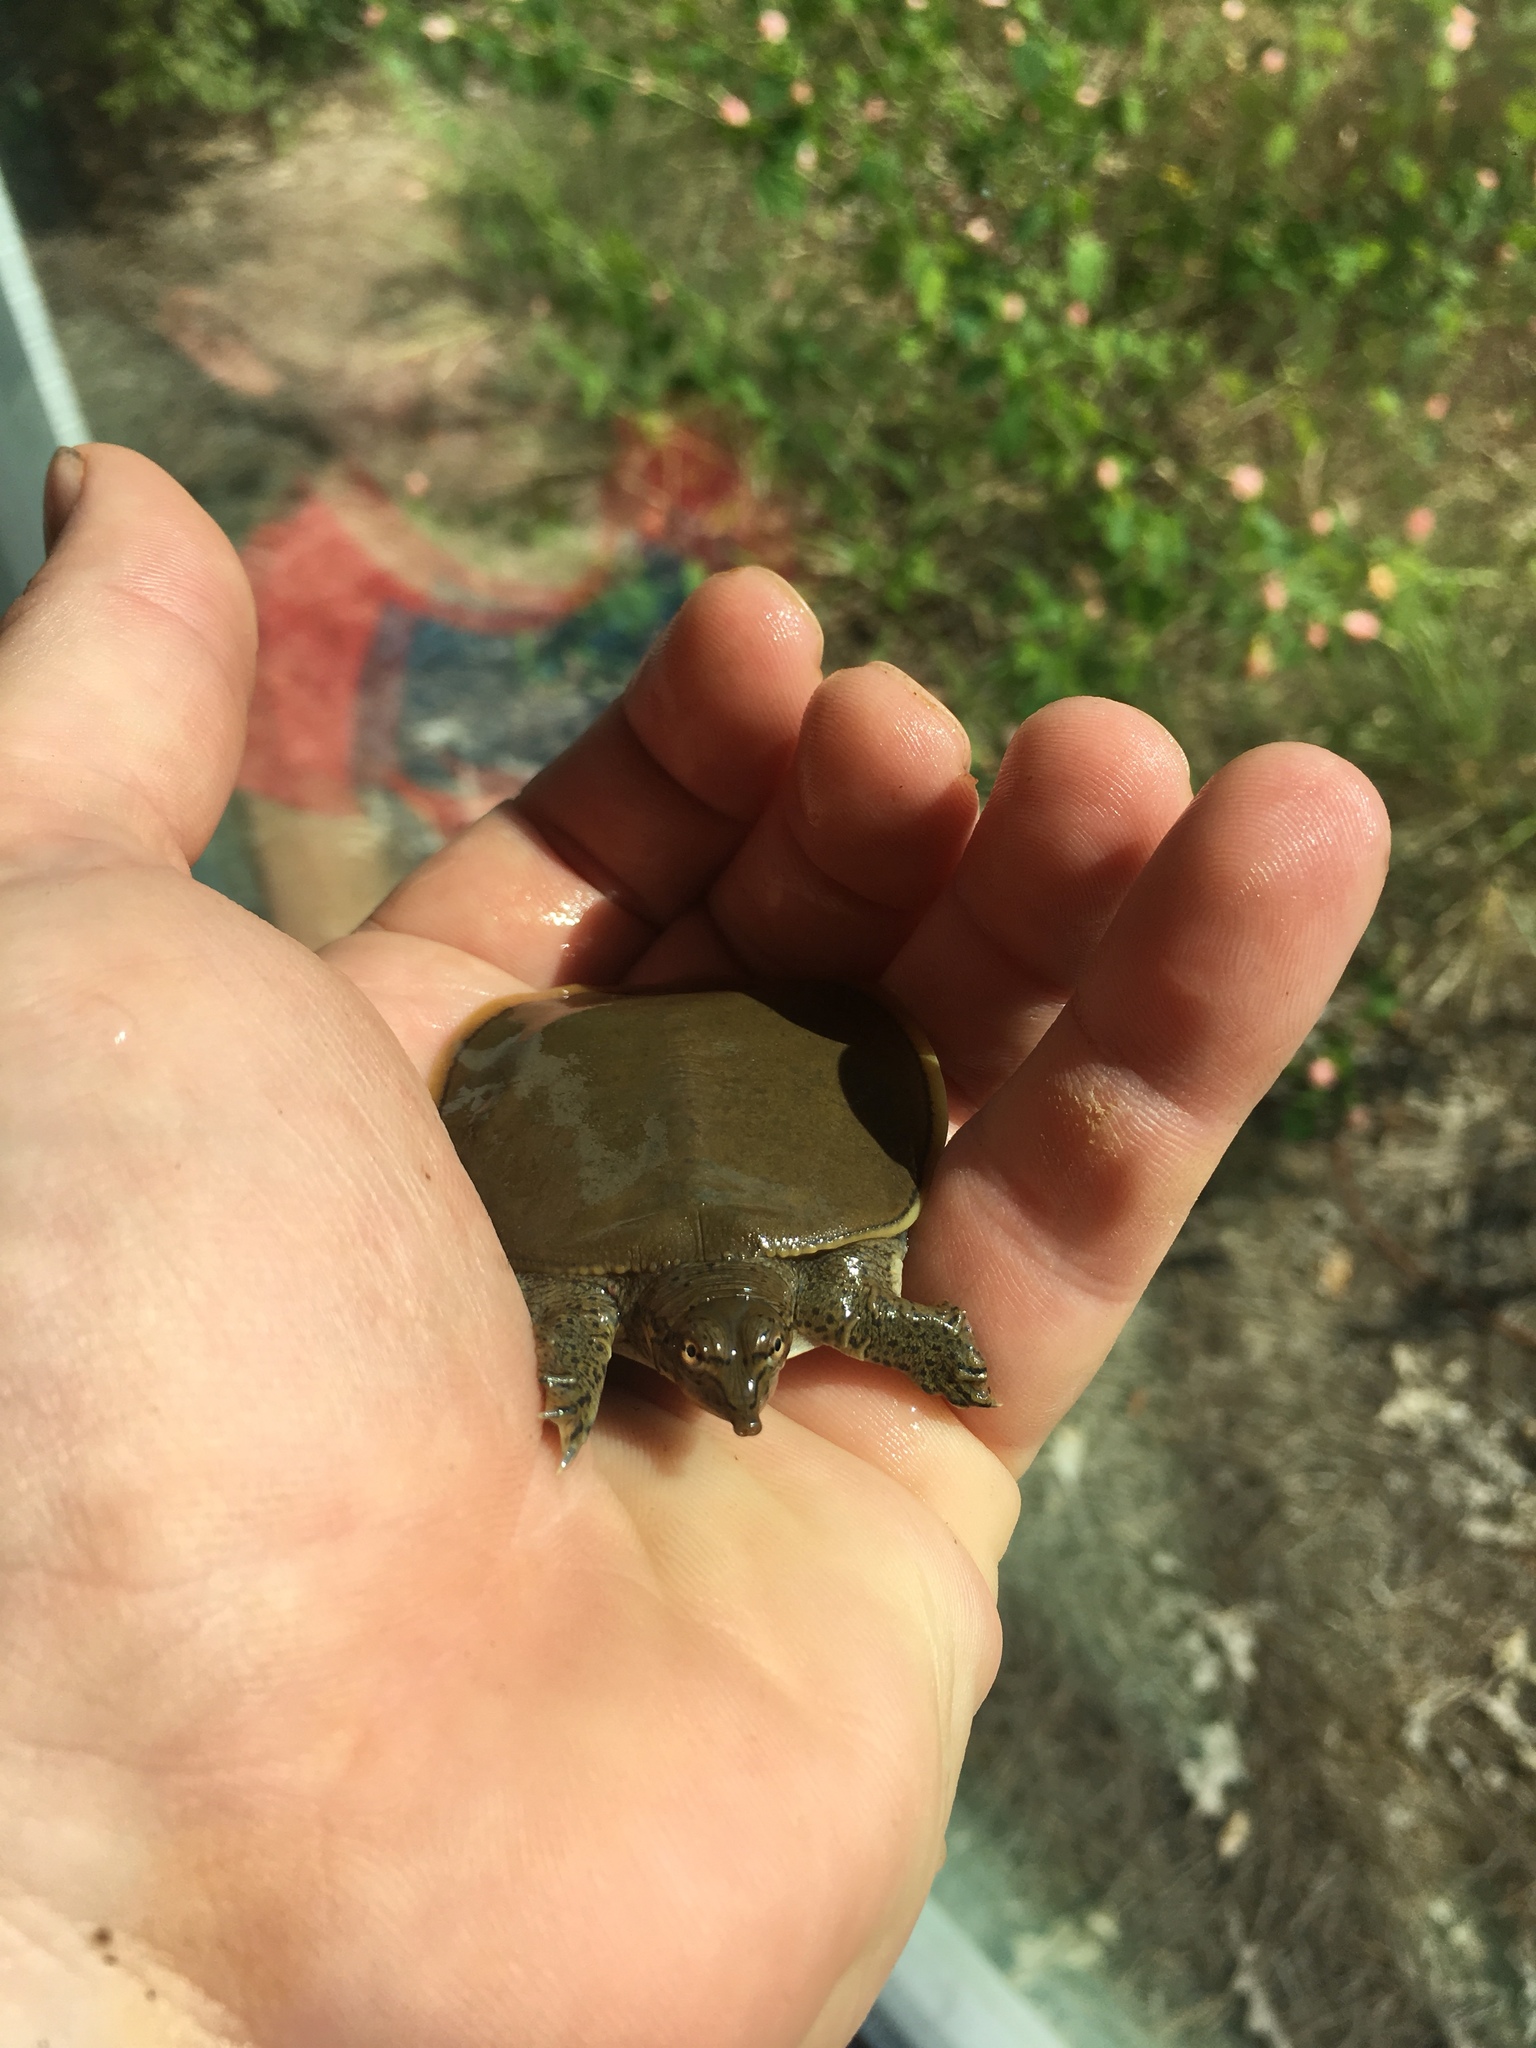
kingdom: Animalia
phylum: Chordata
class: Testudines
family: Trionychidae
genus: Apalone
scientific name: Apalone spinifera
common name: Spiny softshell turtle
